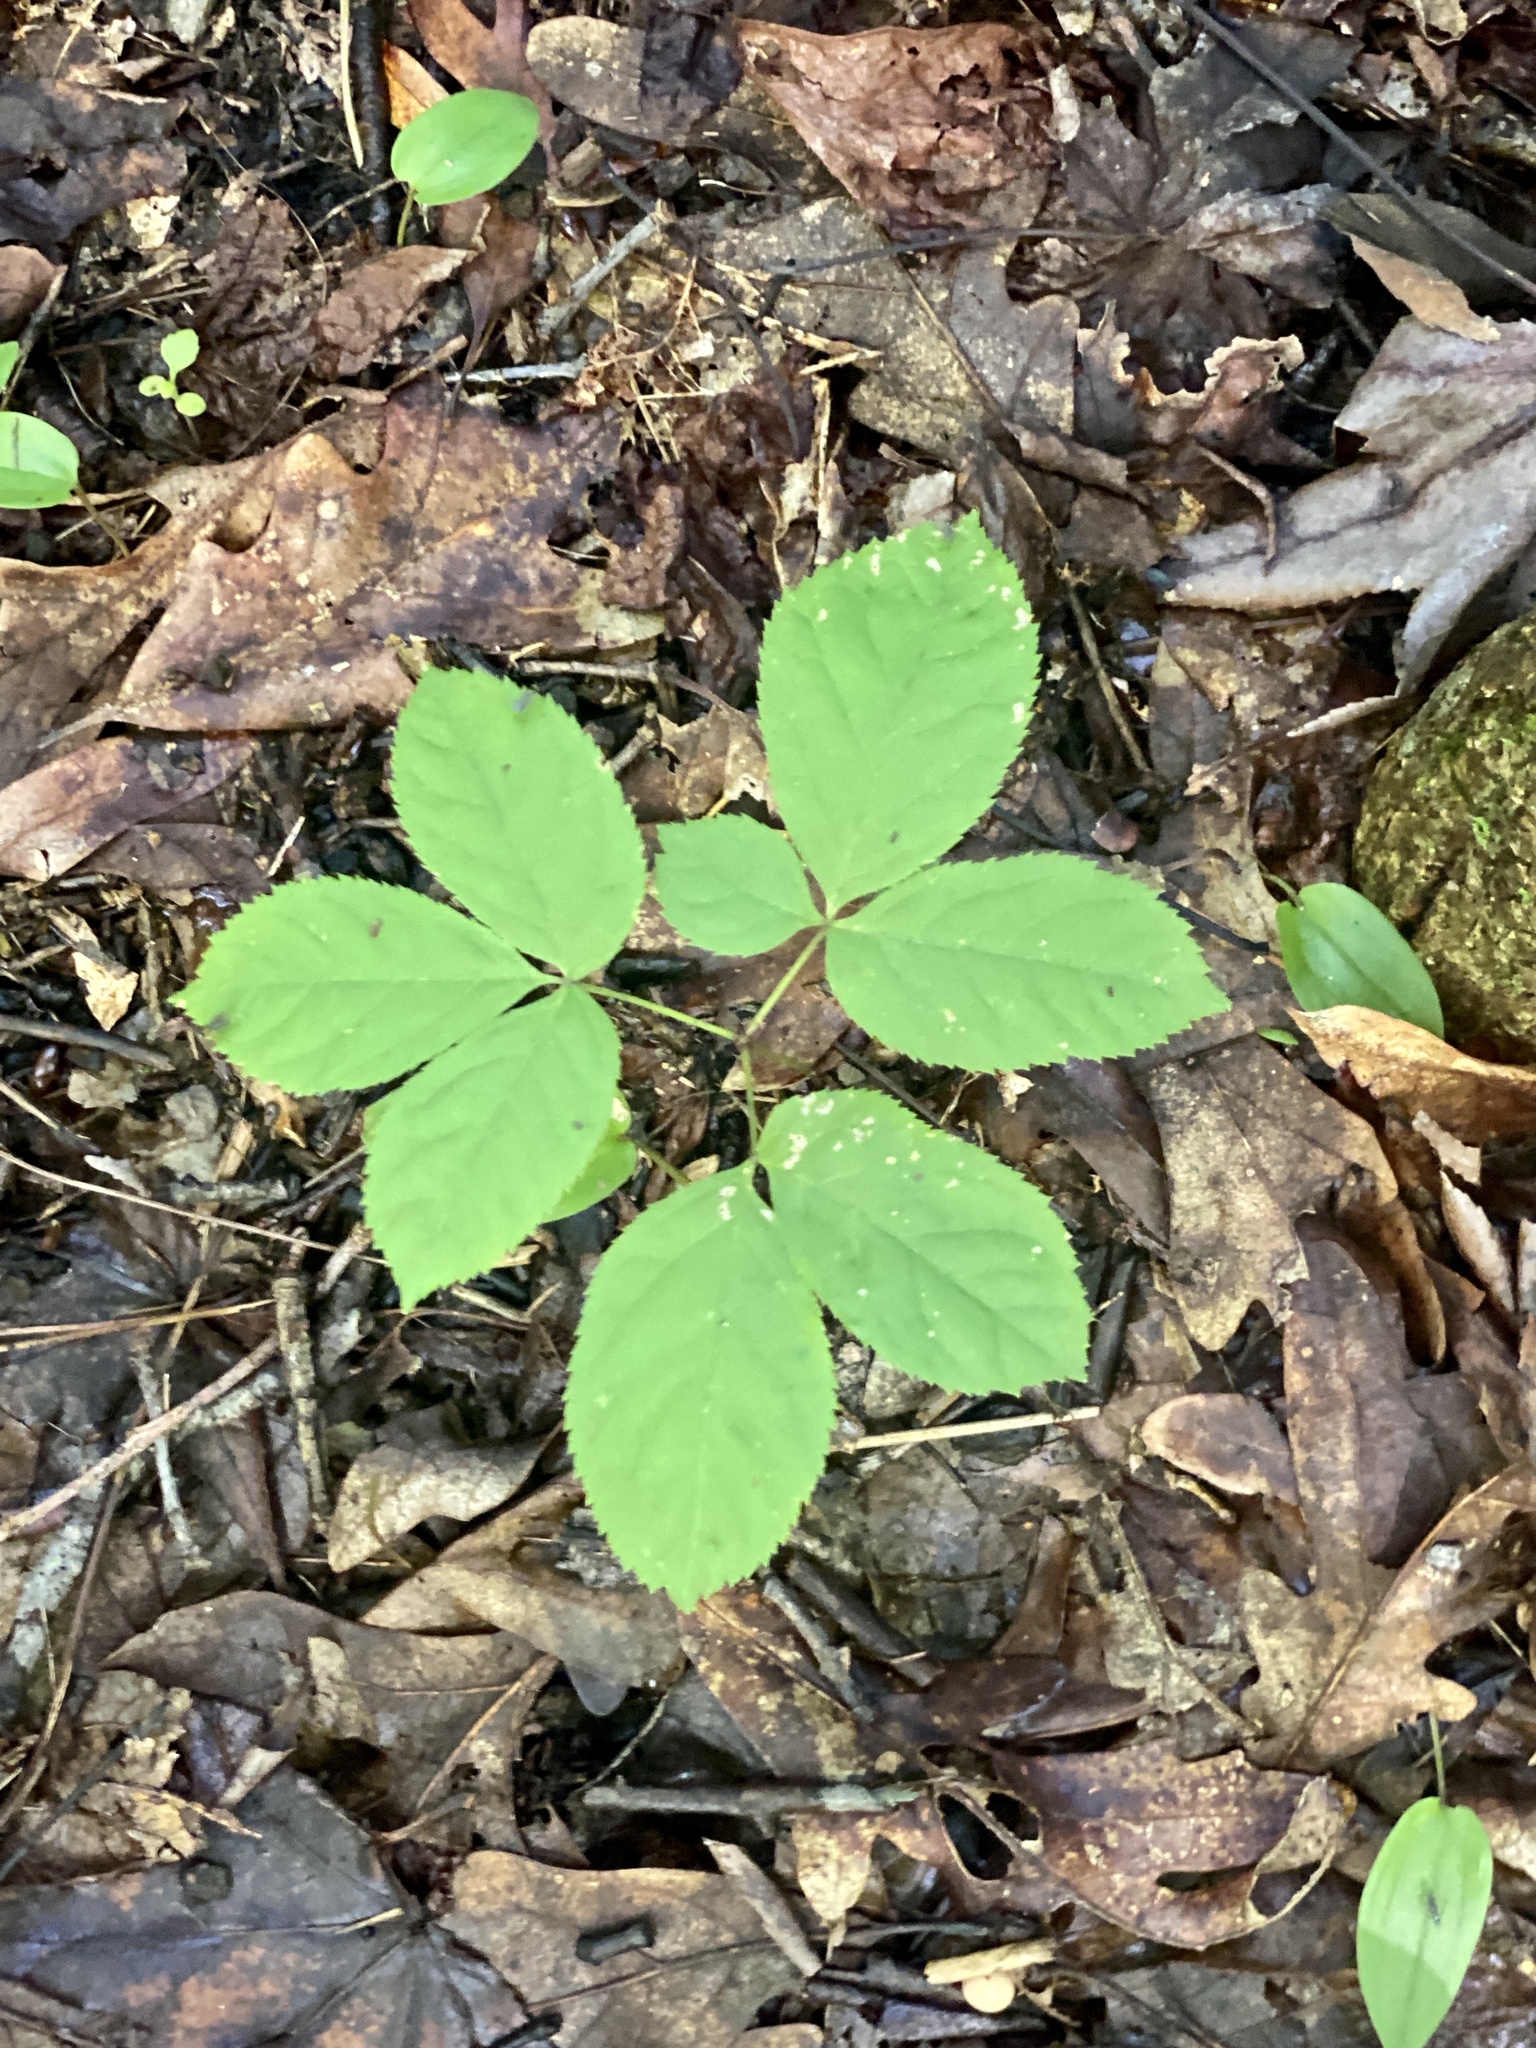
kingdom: Plantae
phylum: Tracheophyta
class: Magnoliopsida
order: Apiales
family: Araliaceae
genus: Aralia
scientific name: Aralia nudicaulis
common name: Wild sarsaparilla
